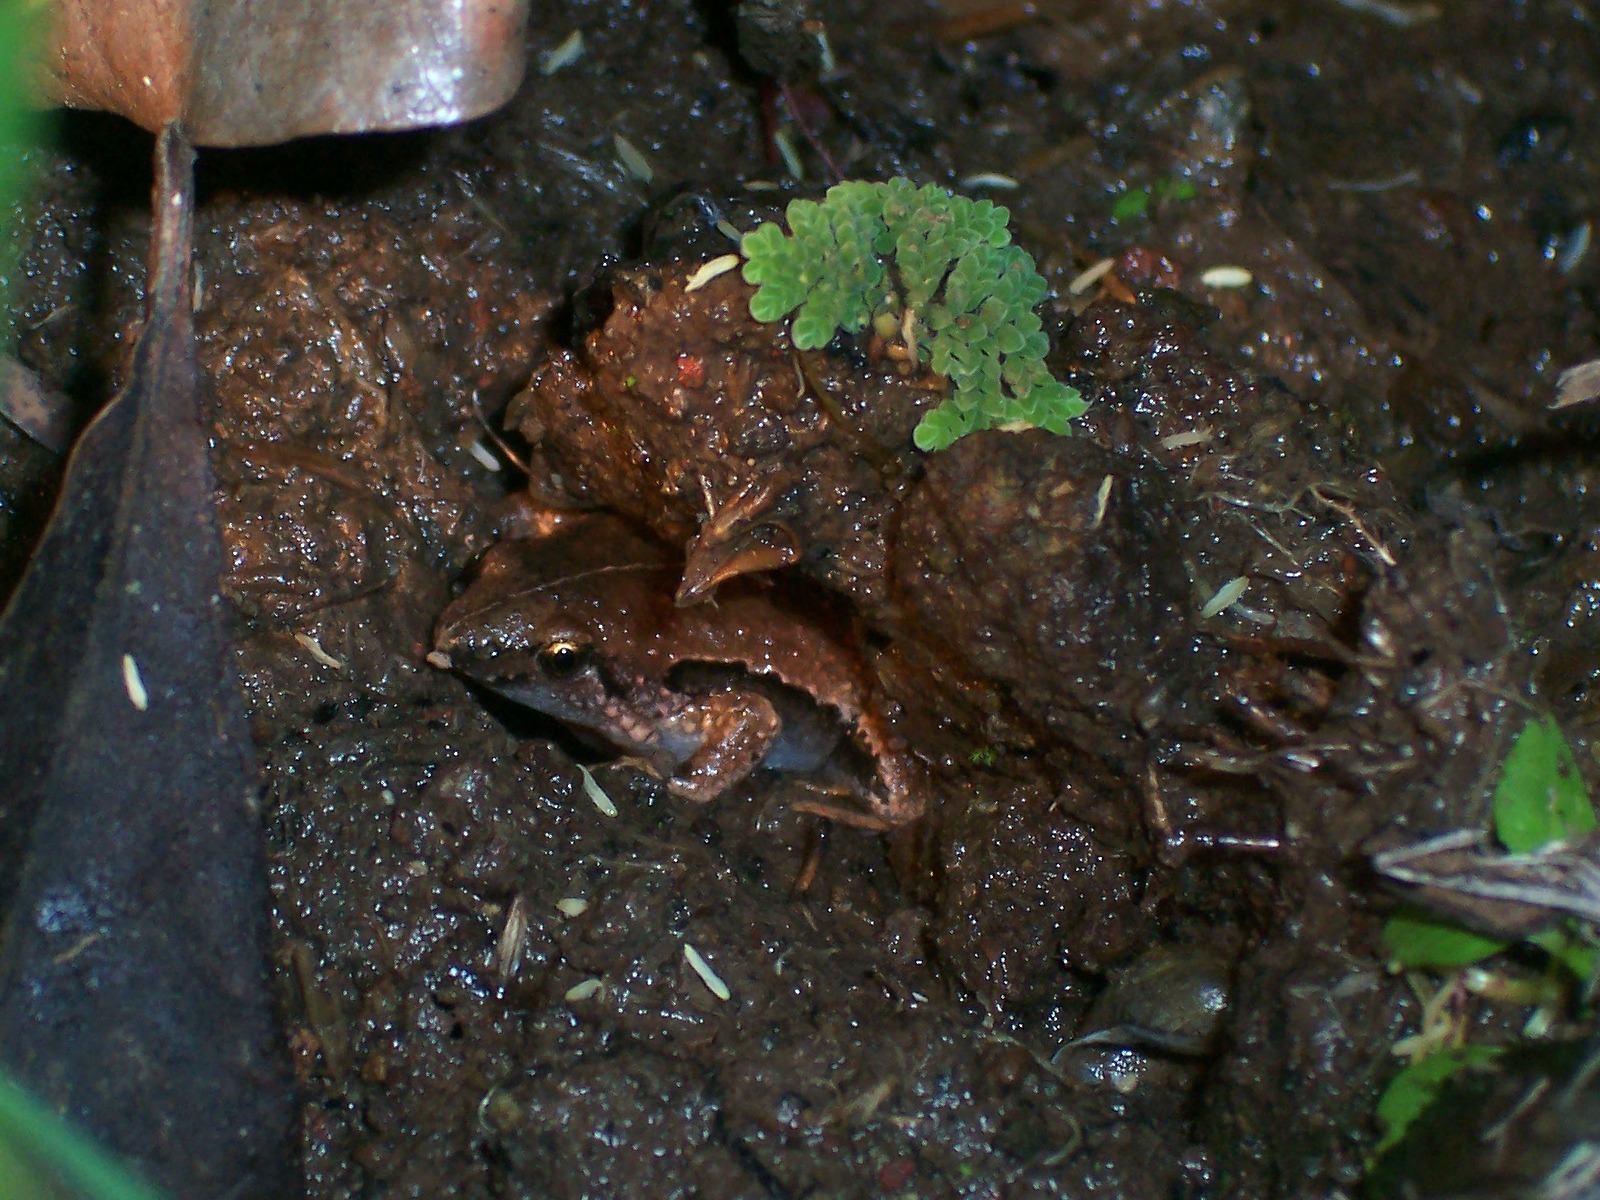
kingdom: Animalia
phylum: Chordata
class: Amphibia
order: Anura
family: Microhylidae
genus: Microhyla
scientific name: Microhyla achatina
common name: Javan chorus frog
